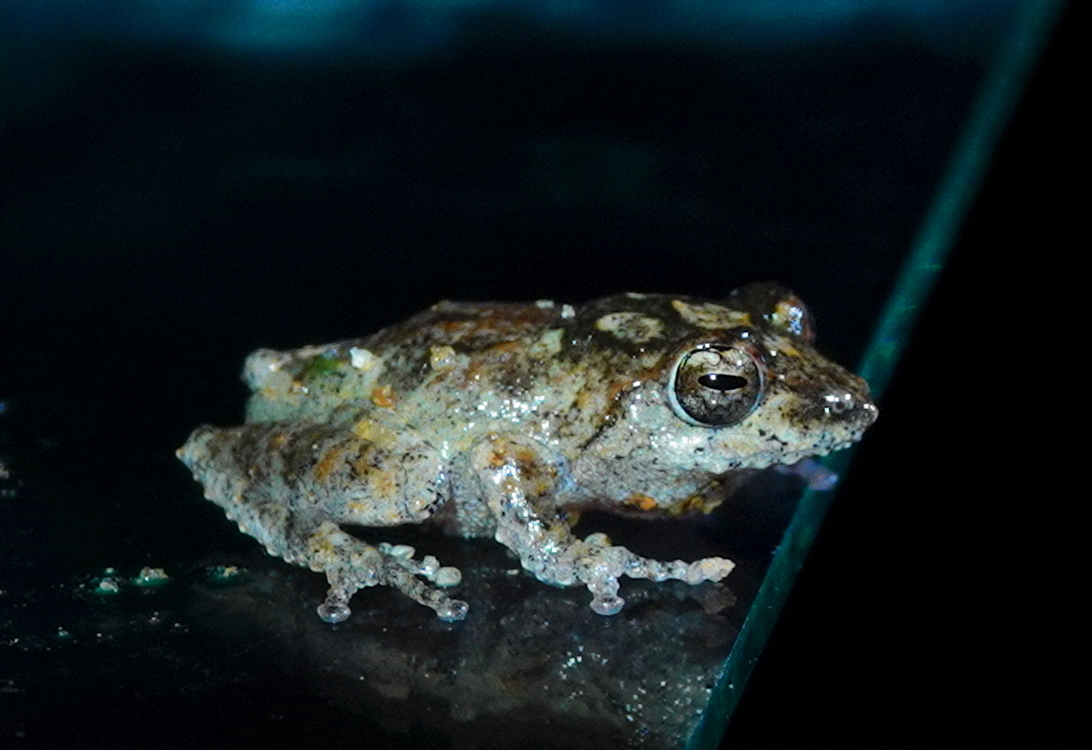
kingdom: Animalia
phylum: Chordata
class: Amphibia
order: Anura
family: Rhacophoridae
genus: Pseudophilautus
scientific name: Pseudophilautus decoris
